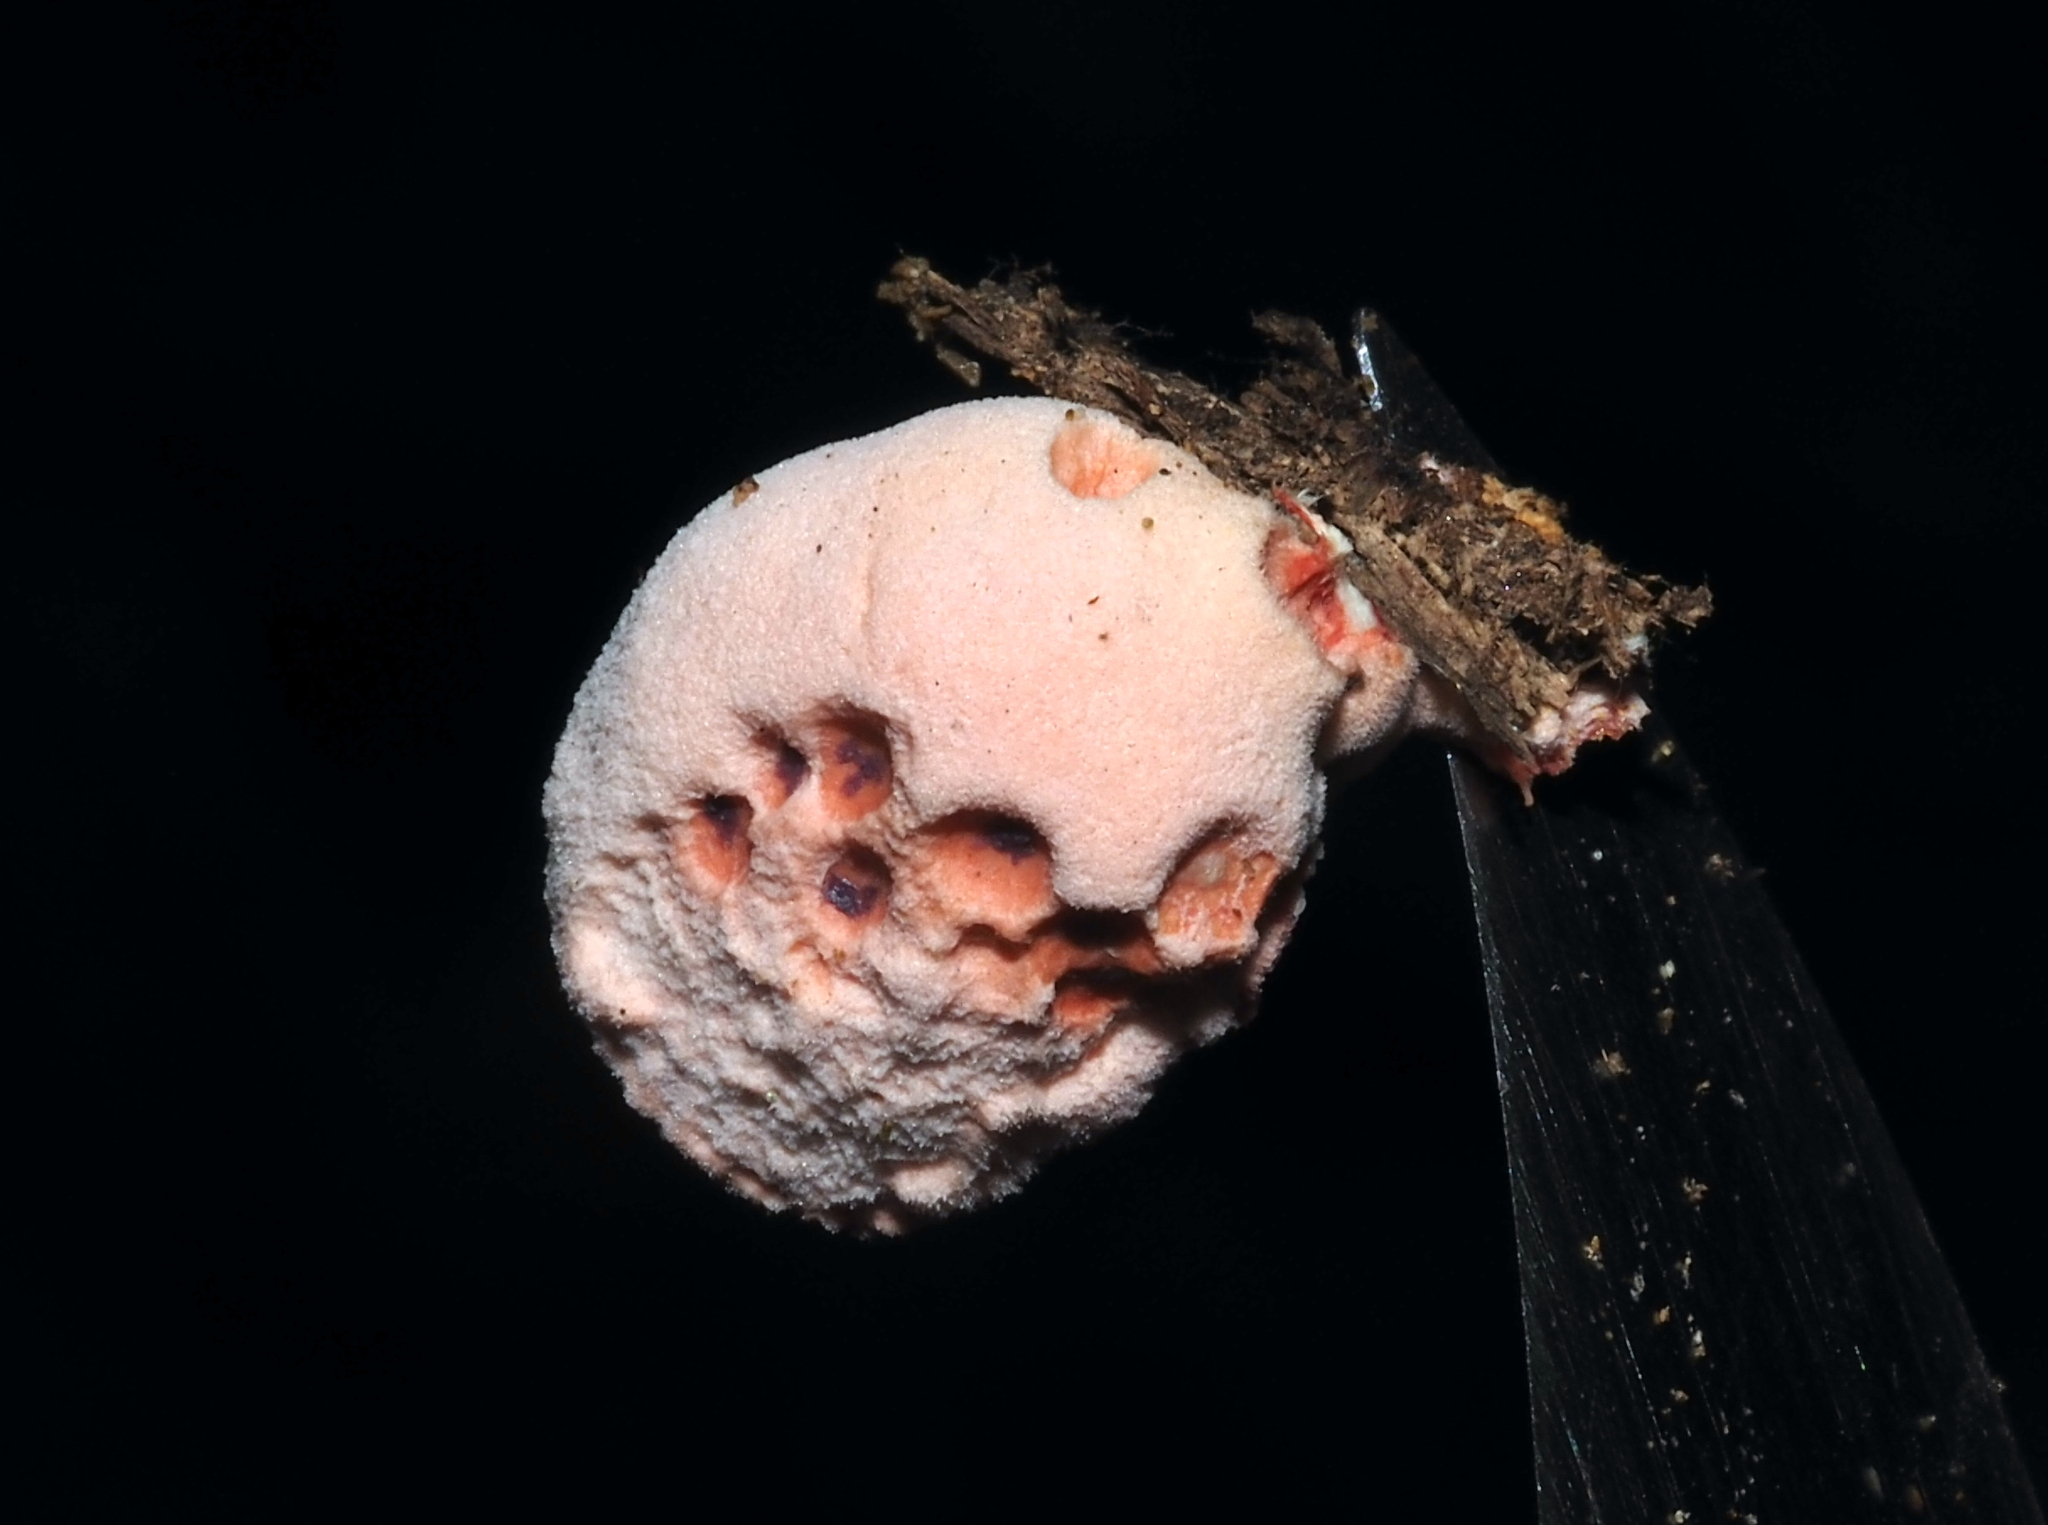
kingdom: Fungi
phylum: Basidiomycota
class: Agaricomycetes
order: Polyporales
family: Irpicaceae
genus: Byssomerulius
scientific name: Byssomerulius incarnatus
